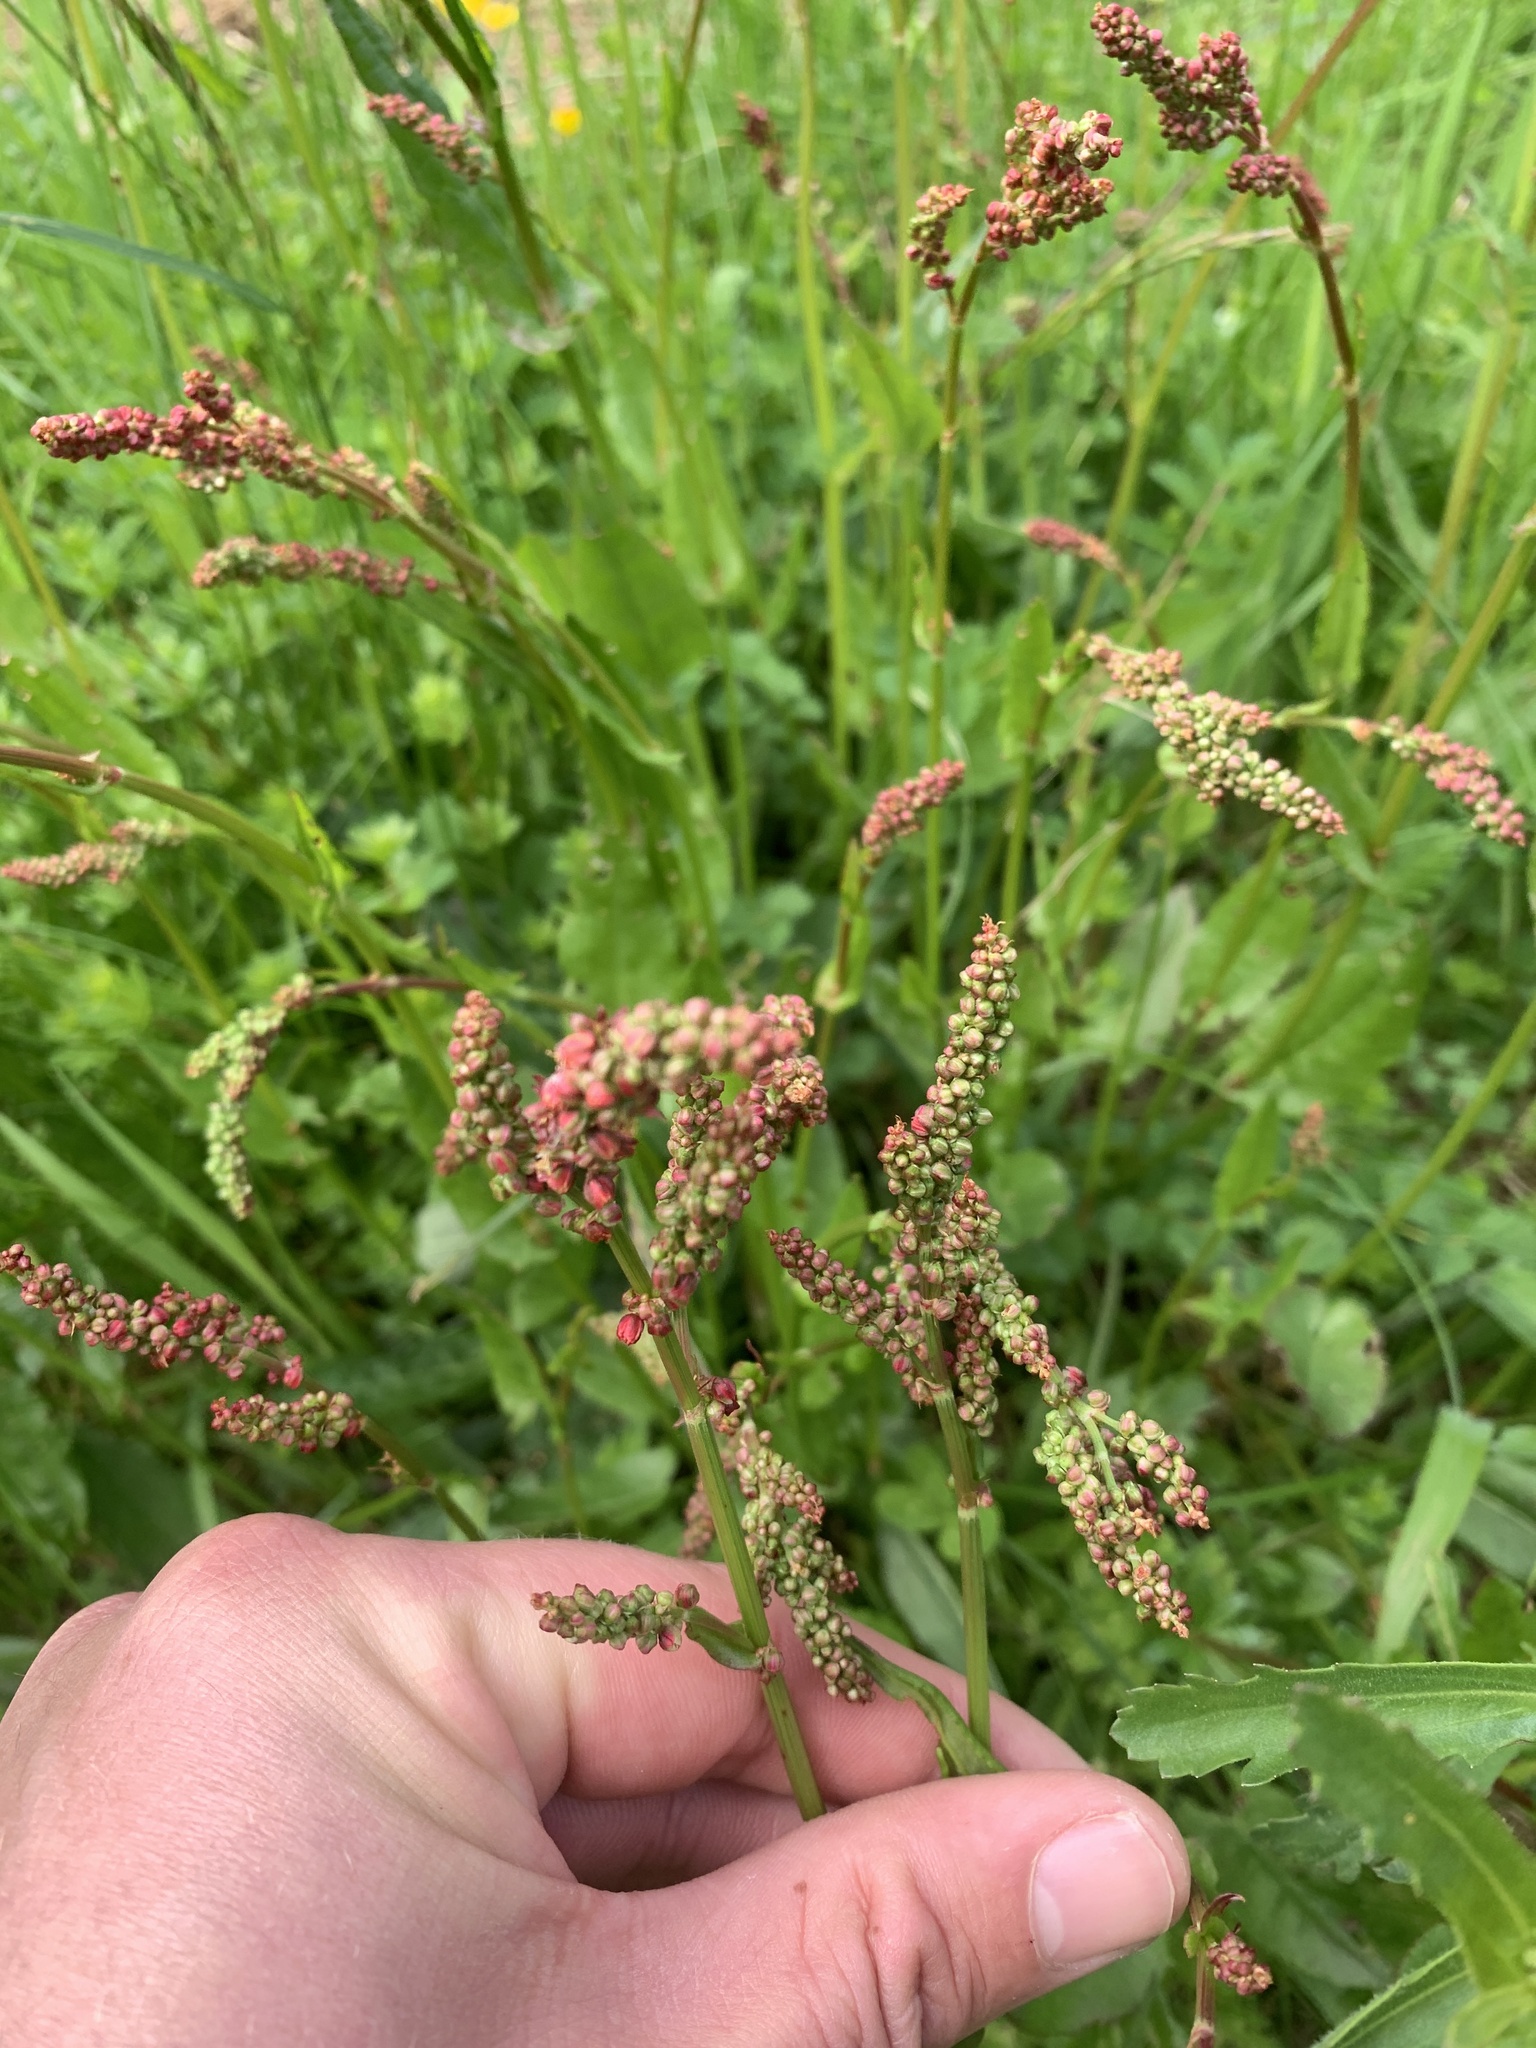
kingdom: Plantae
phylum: Tracheophyta
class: Magnoliopsida
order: Caryophyllales
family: Polygonaceae
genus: Rumex
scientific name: Rumex acetosa
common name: Garden sorrel
